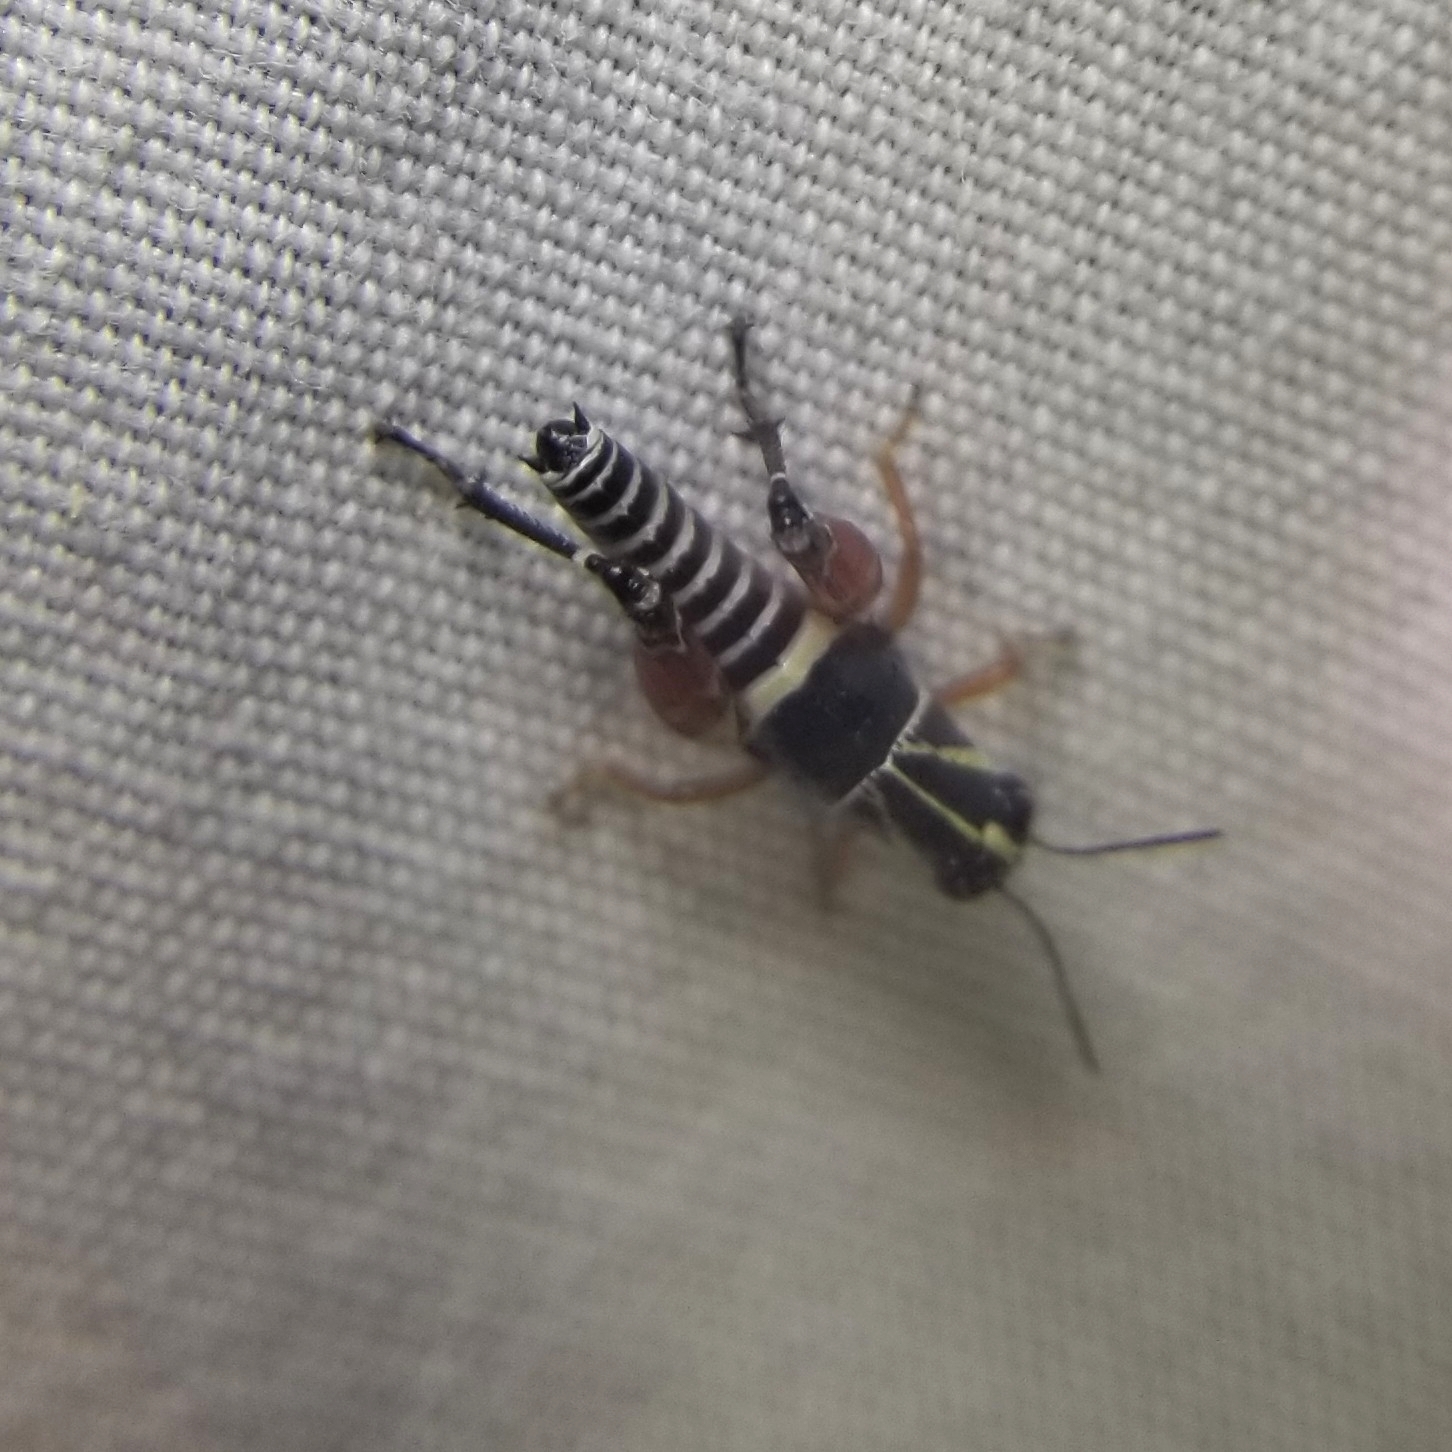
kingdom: Animalia
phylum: Arthropoda
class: Insecta
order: Orthoptera
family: Acrididae
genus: Aidemona
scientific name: Aidemona azteca
